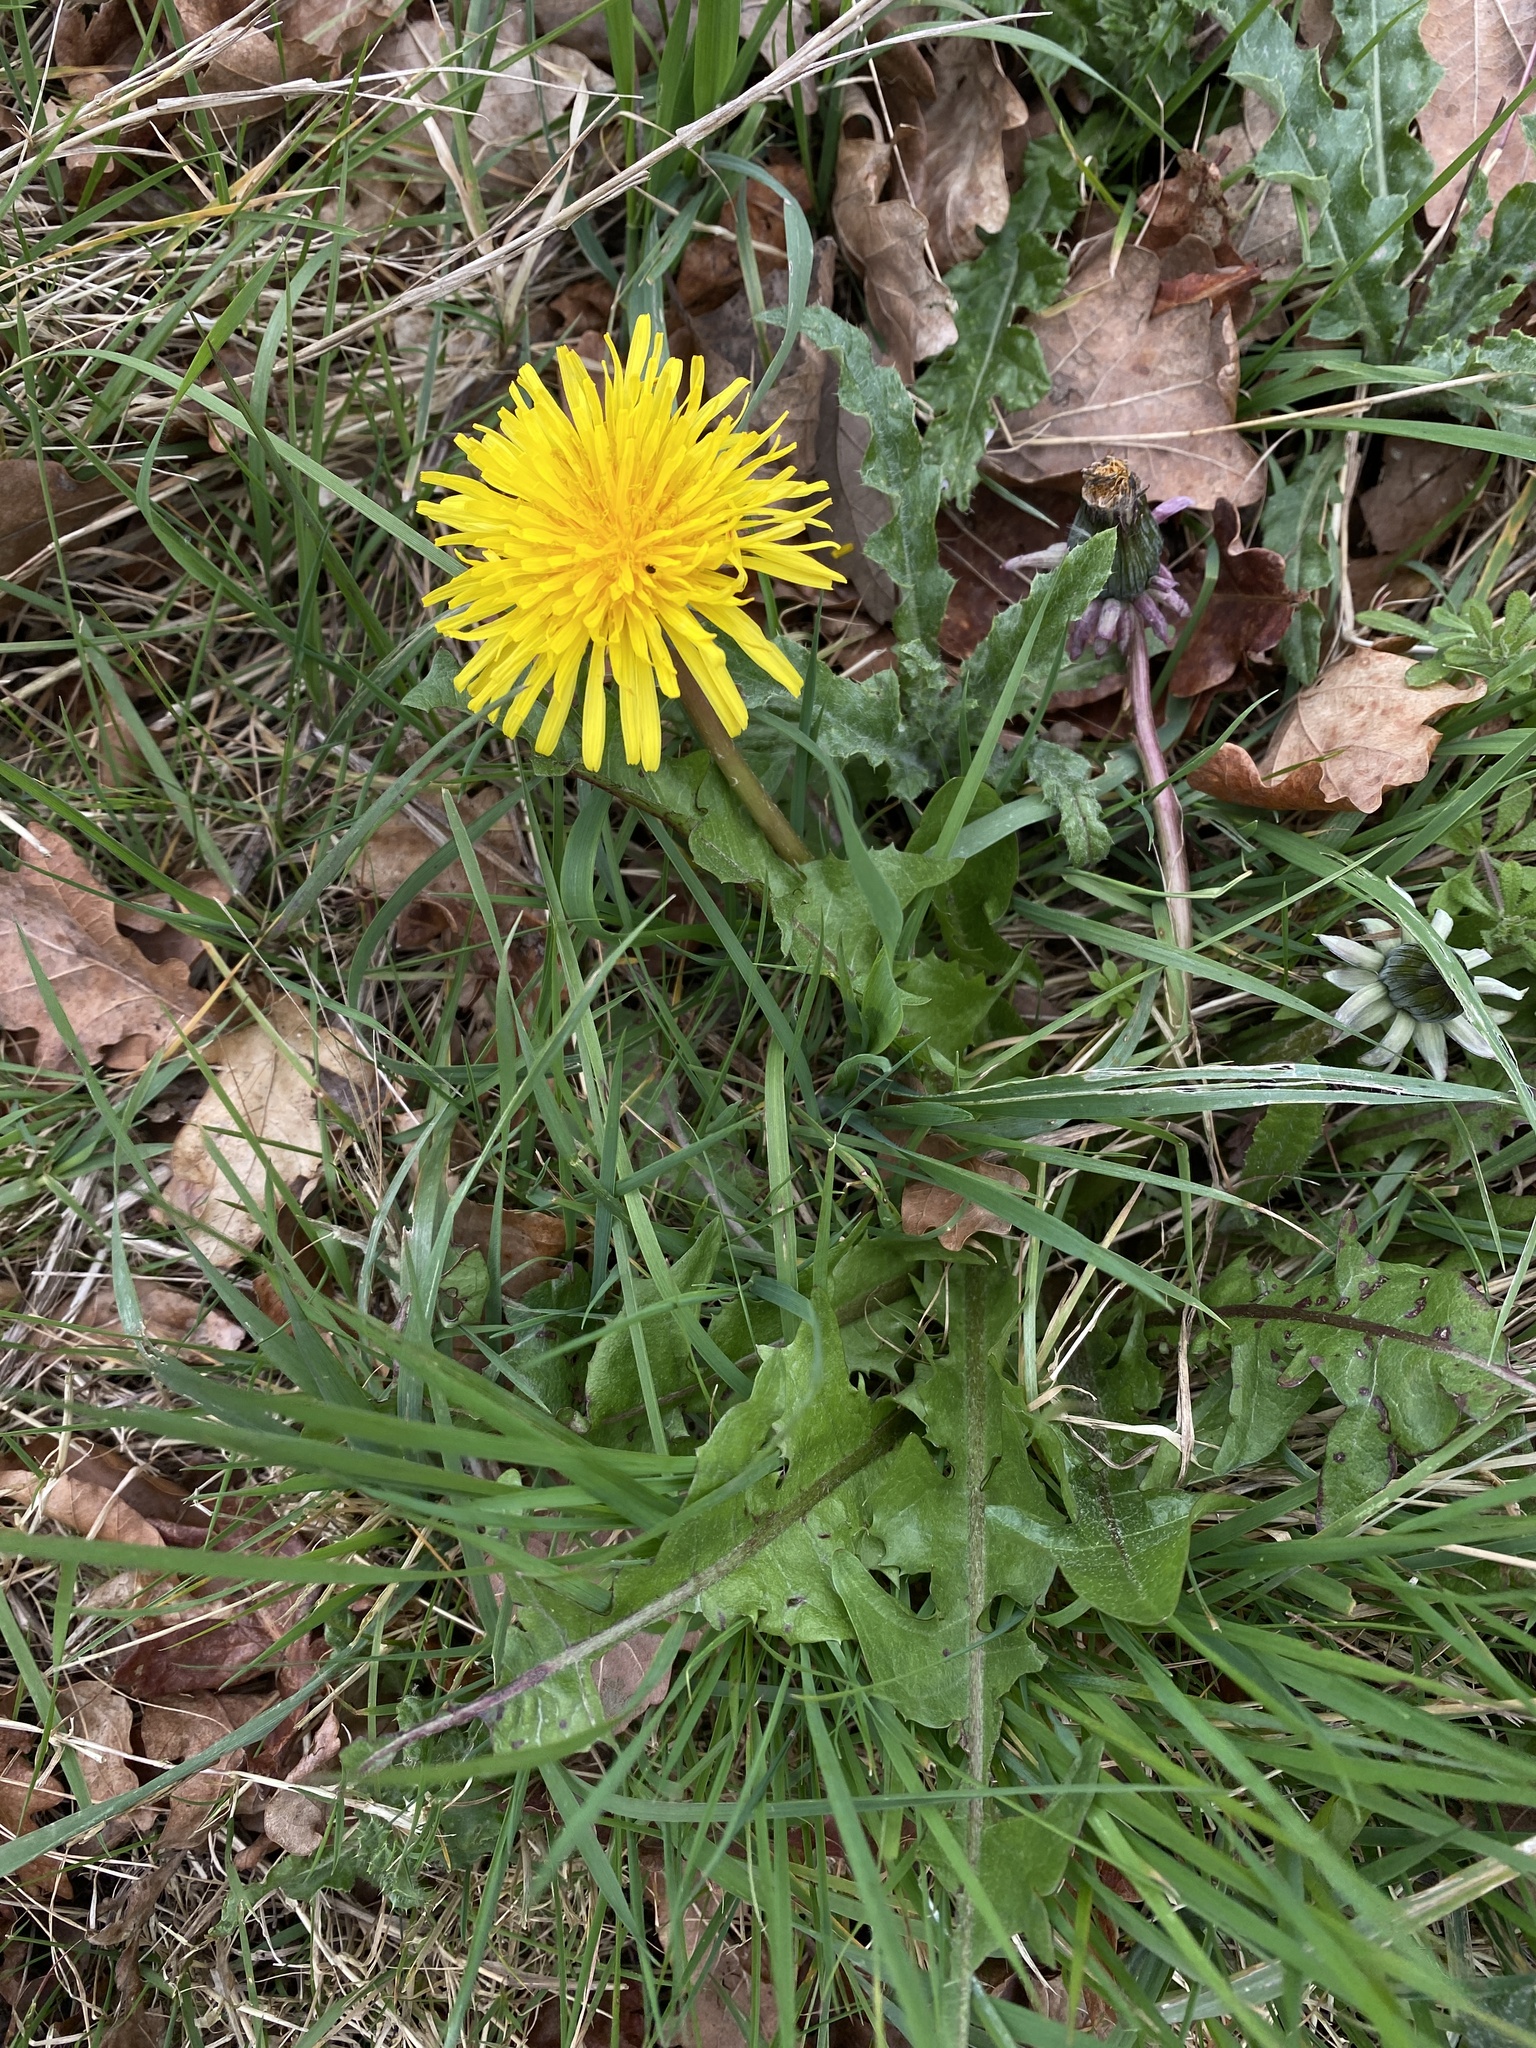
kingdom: Plantae
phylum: Tracheophyta
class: Magnoliopsida
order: Asterales
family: Asteraceae
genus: Taraxacum
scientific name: Taraxacum officinale
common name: Common dandelion
